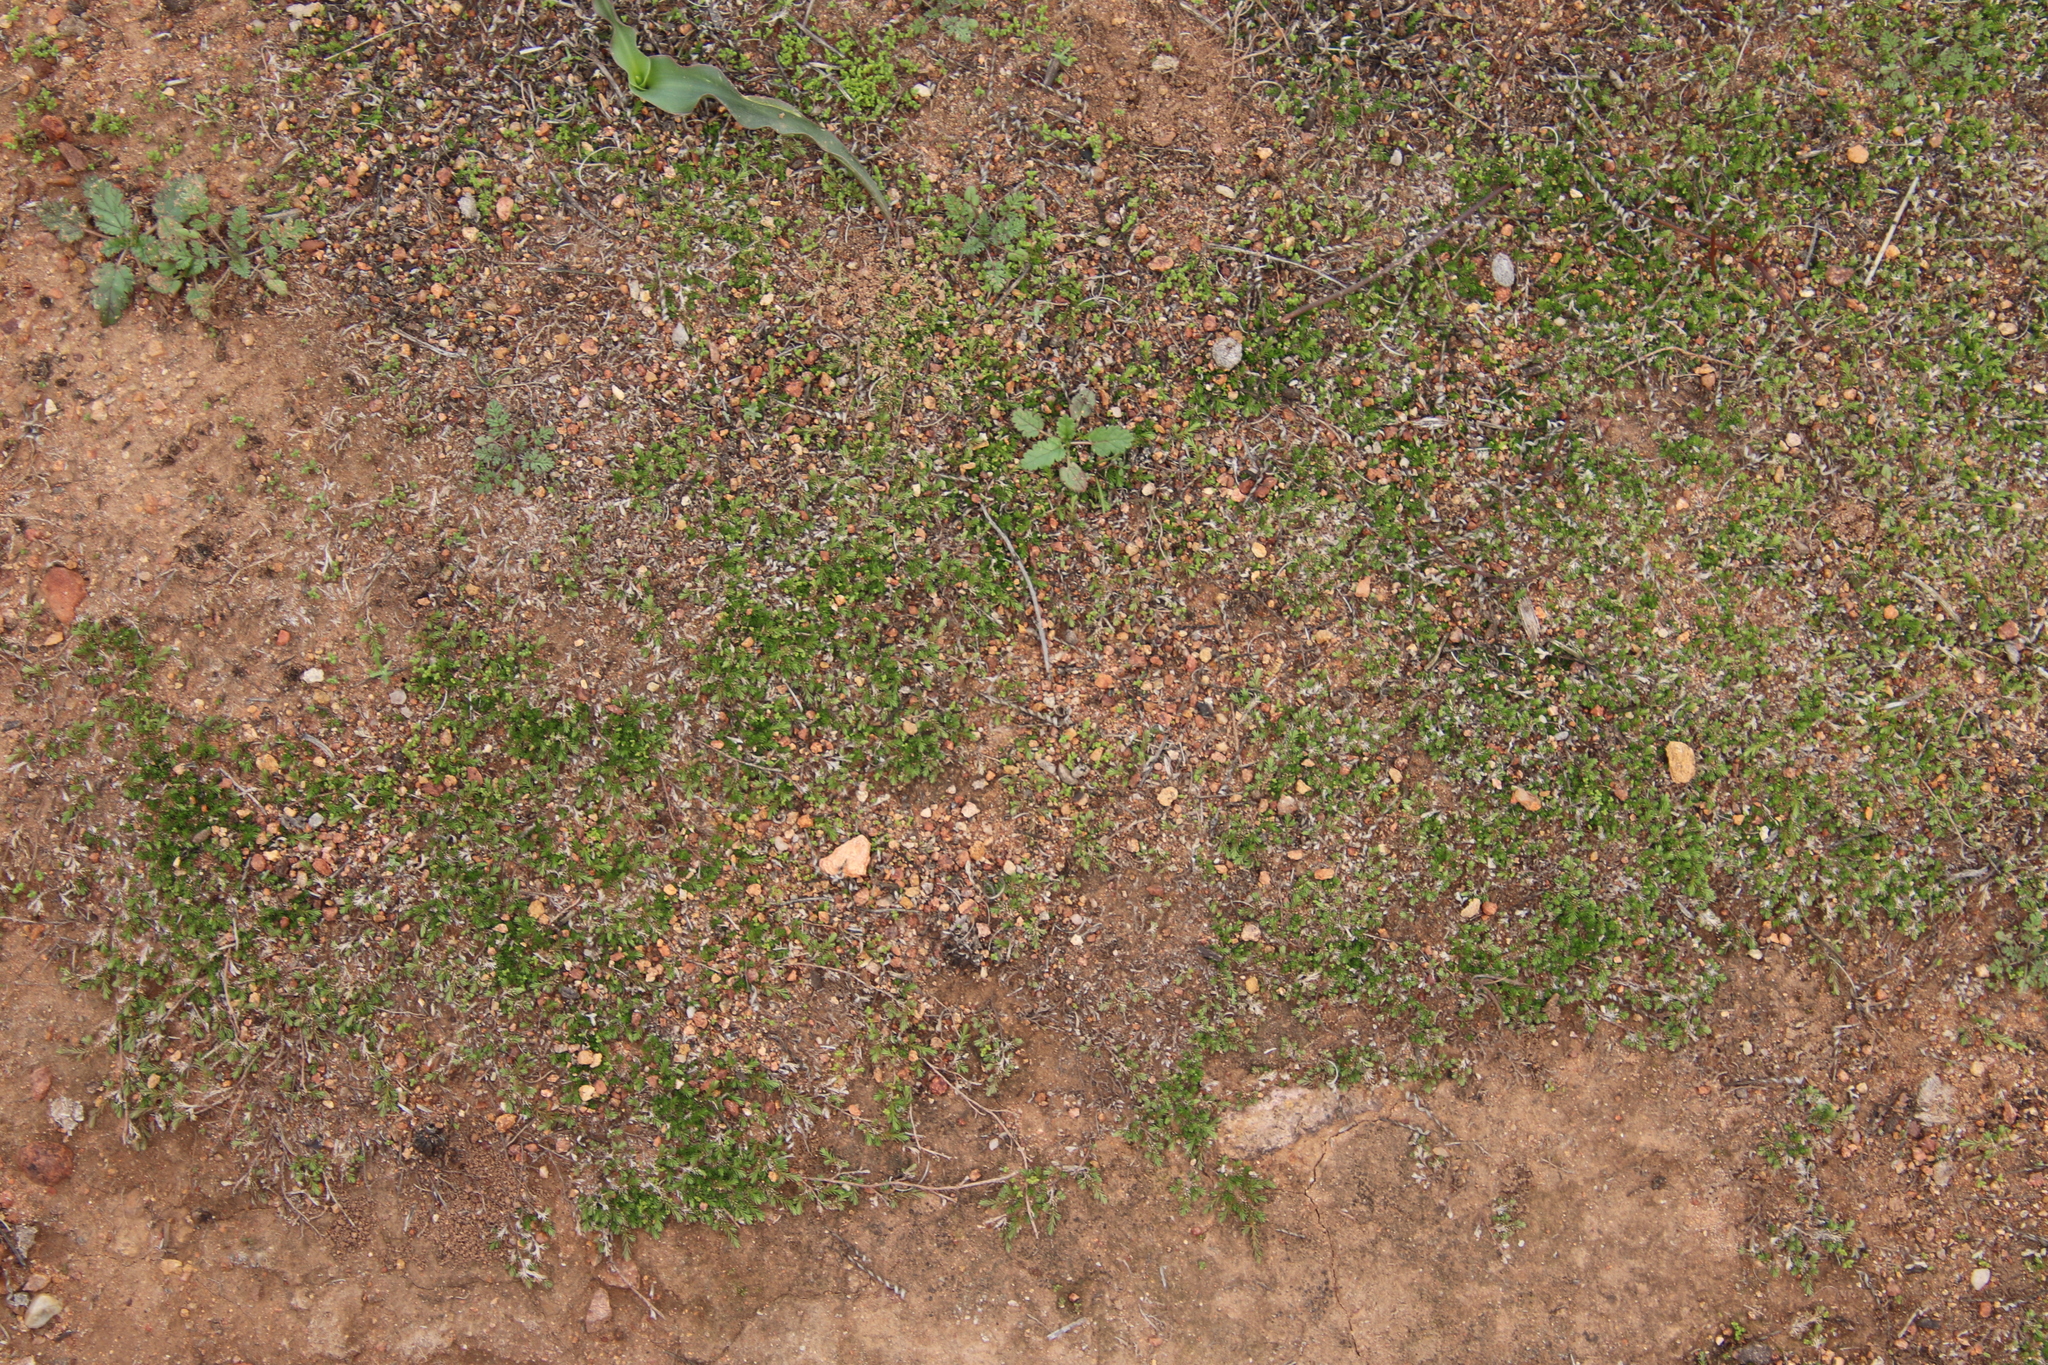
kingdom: Plantae
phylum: Tracheophyta
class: Lycopodiopsida
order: Selaginellales
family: Selaginellaceae
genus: Selaginella
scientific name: Selaginella cinerascens
